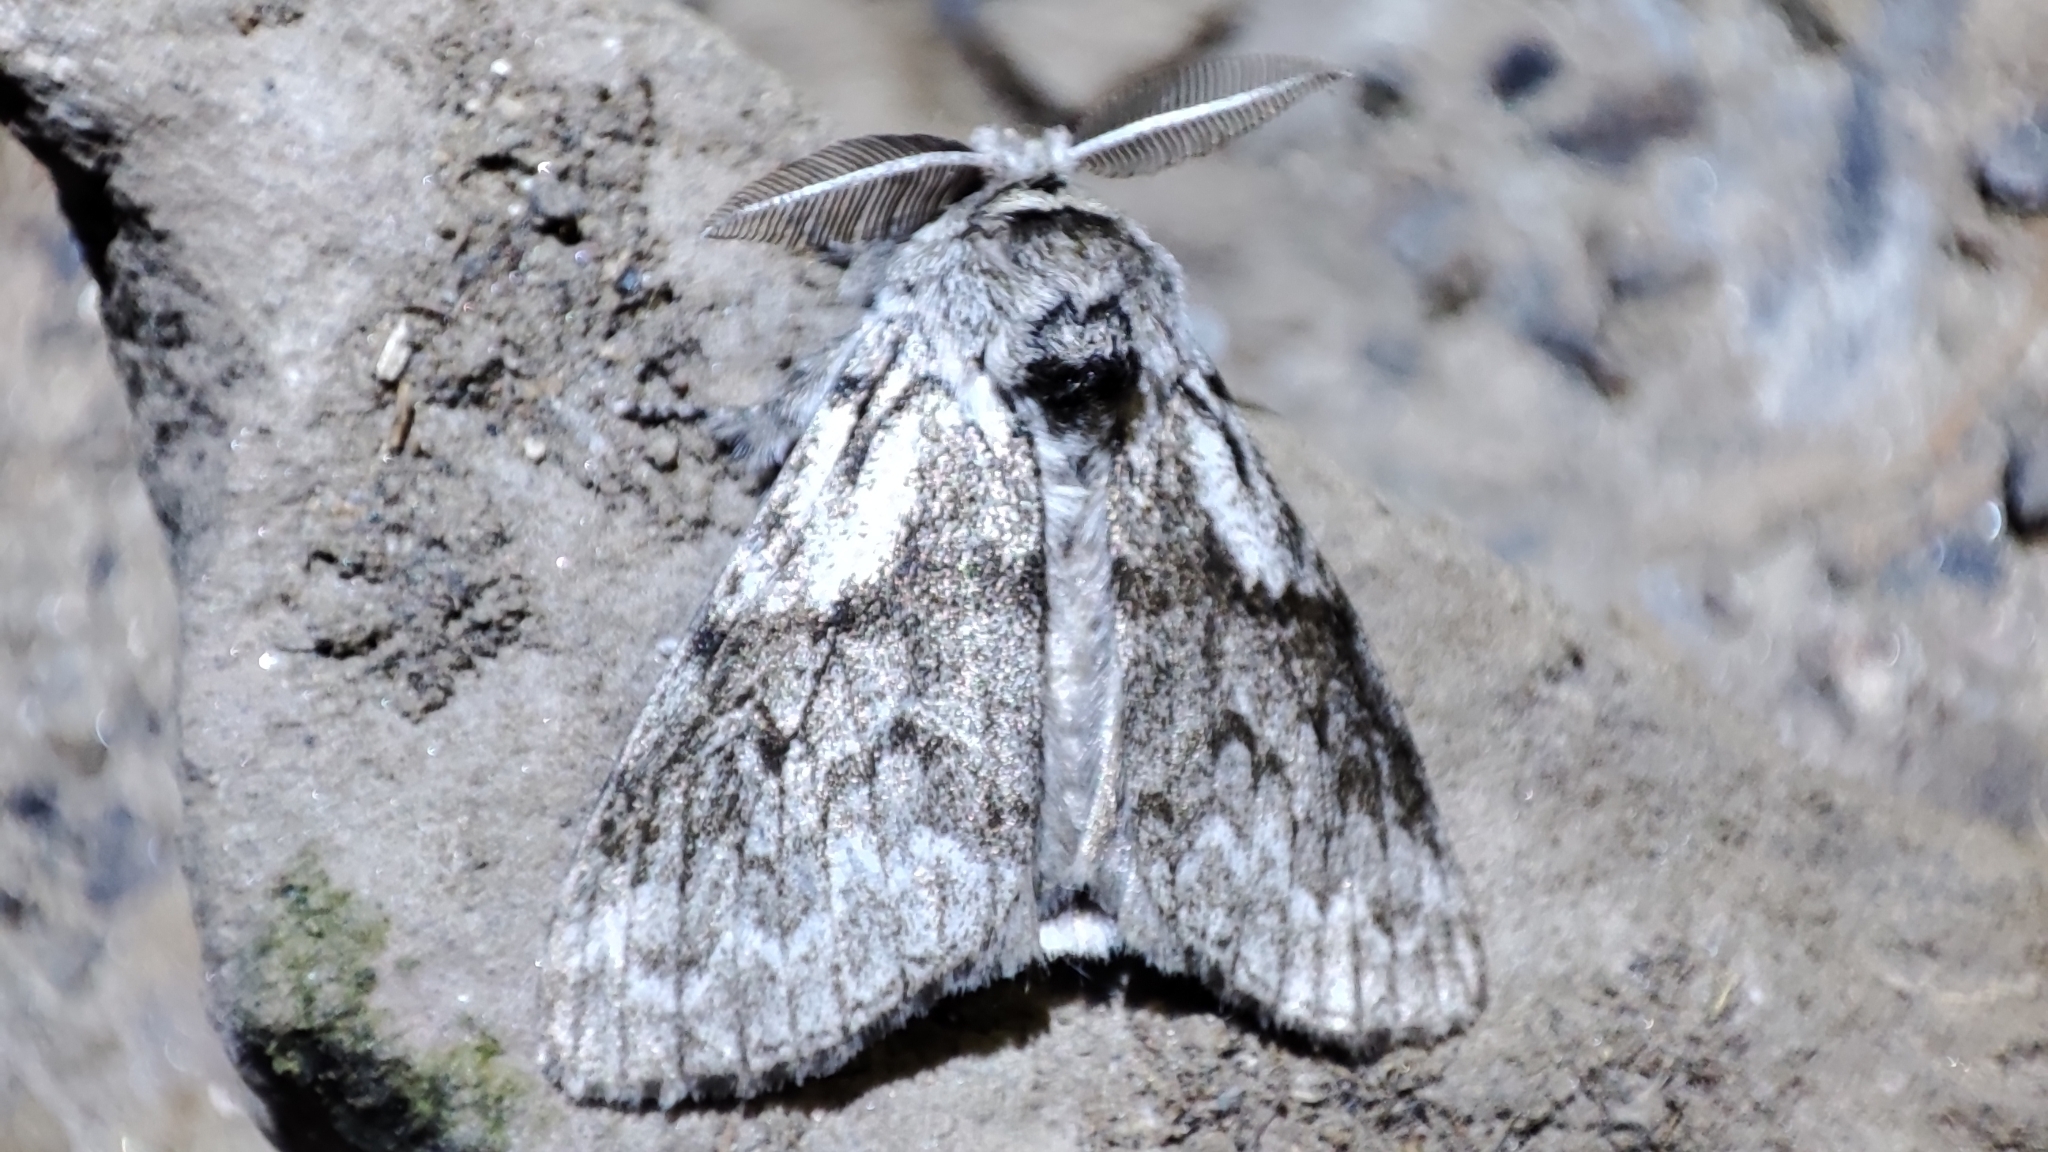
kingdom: Animalia
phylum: Arthropoda
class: Insecta
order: Lepidoptera
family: Erebidae
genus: Calliteara
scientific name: Calliteara abietis
